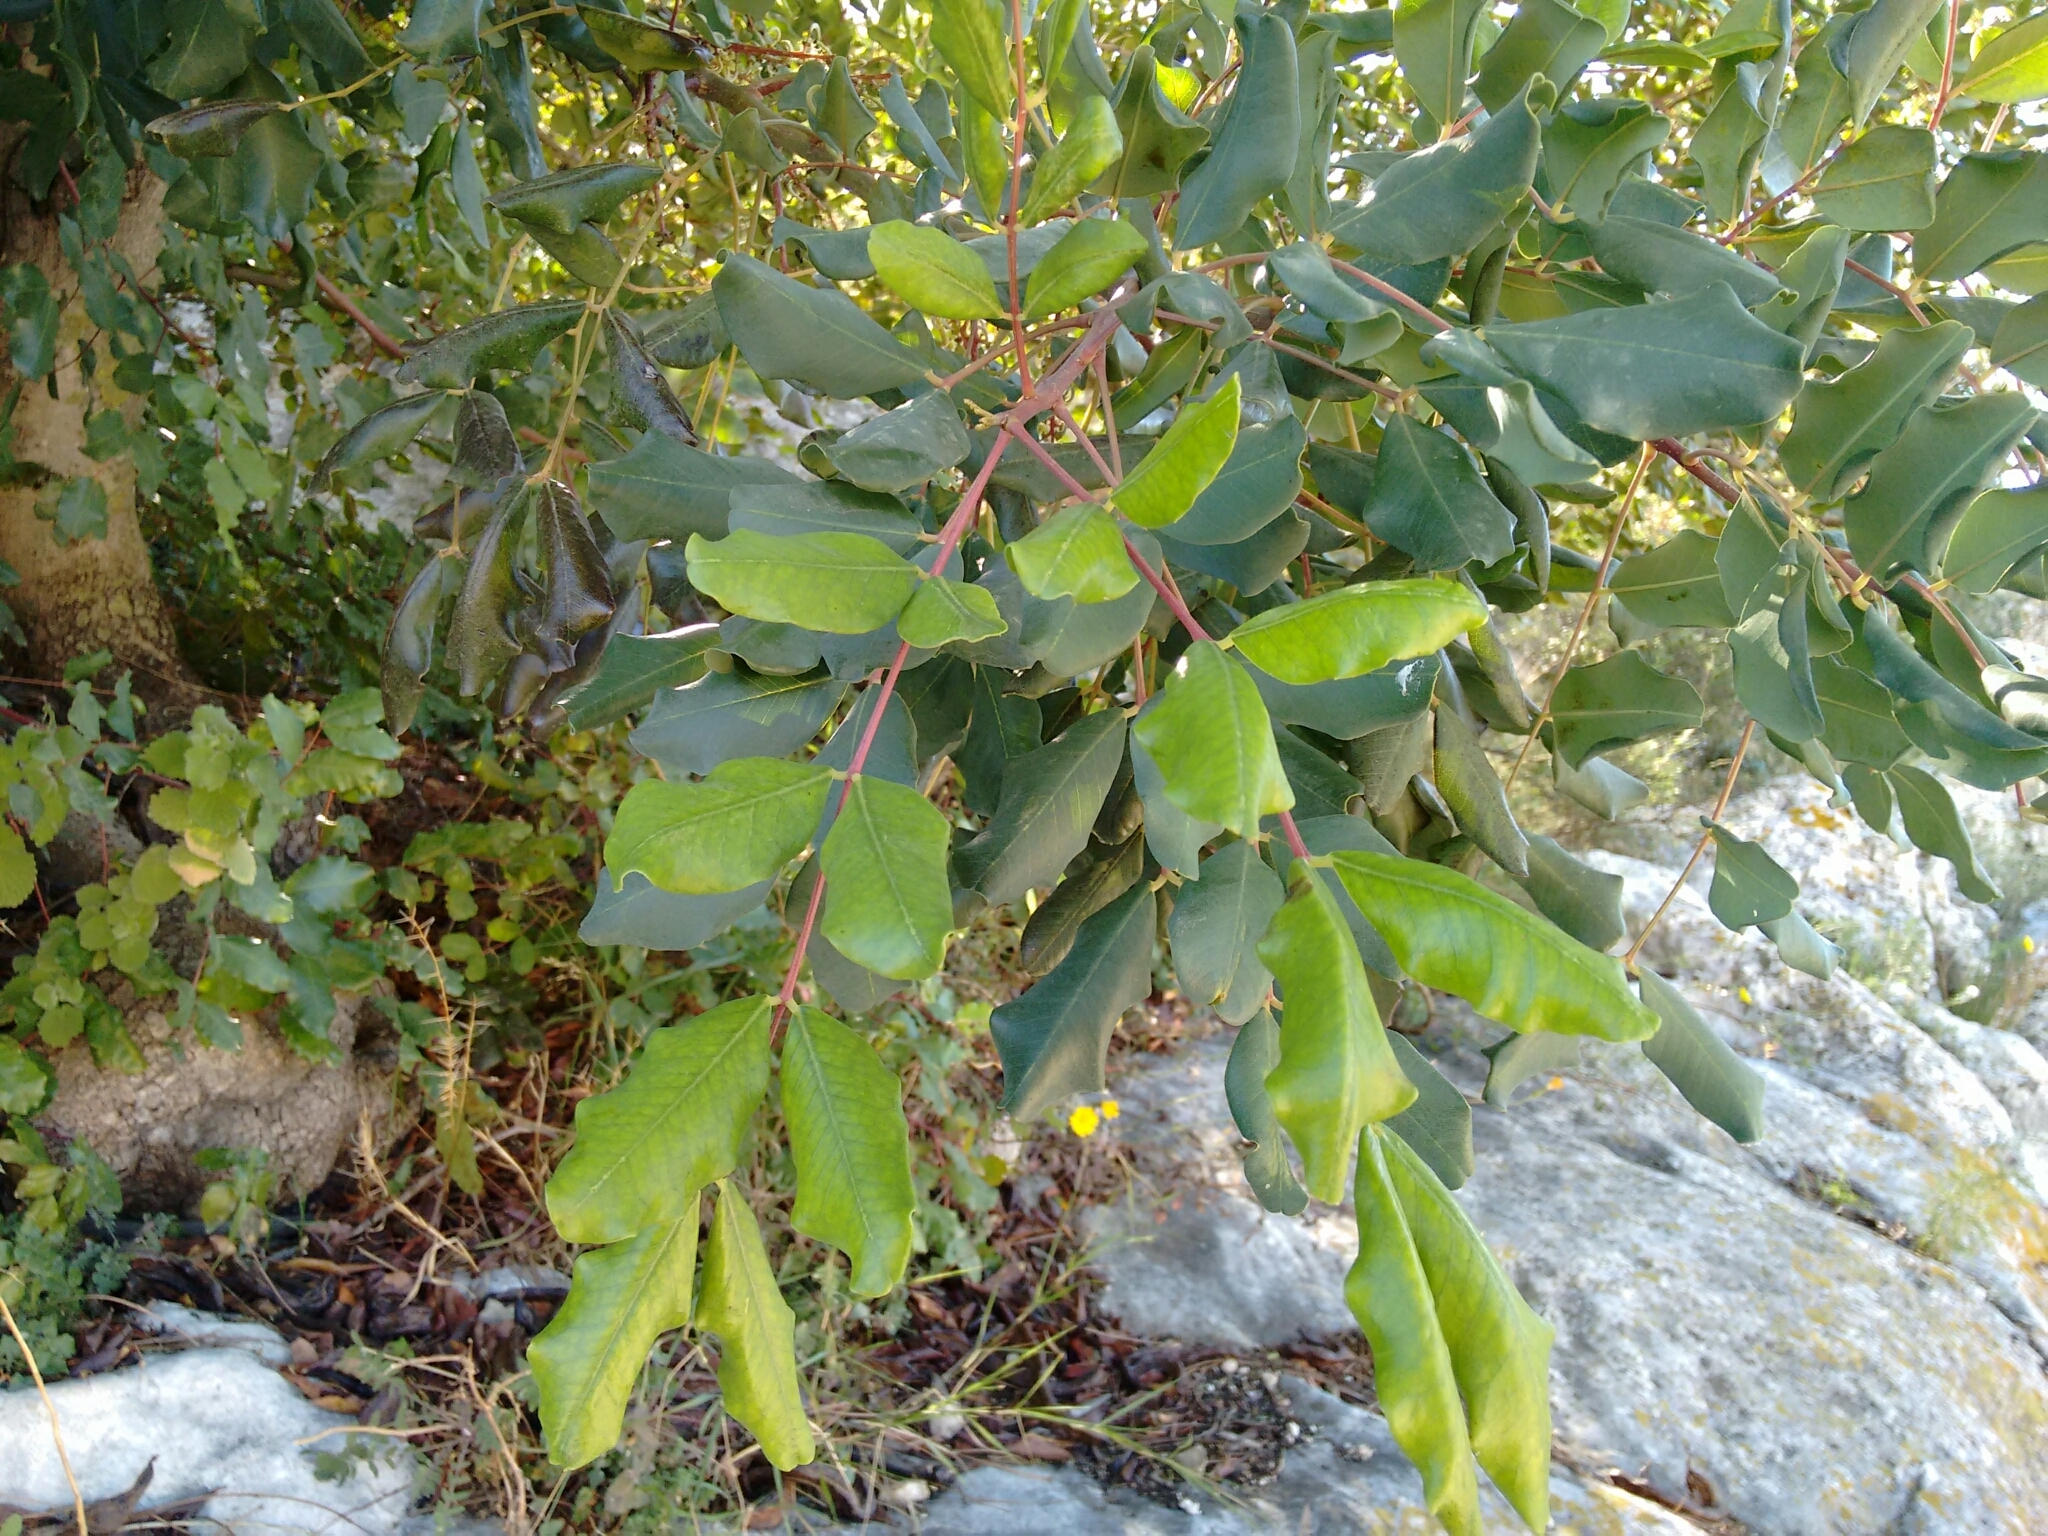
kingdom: Plantae
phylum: Tracheophyta
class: Magnoliopsida
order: Fabales
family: Fabaceae
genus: Ceratonia
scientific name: Ceratonia siliqua
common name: Carob
